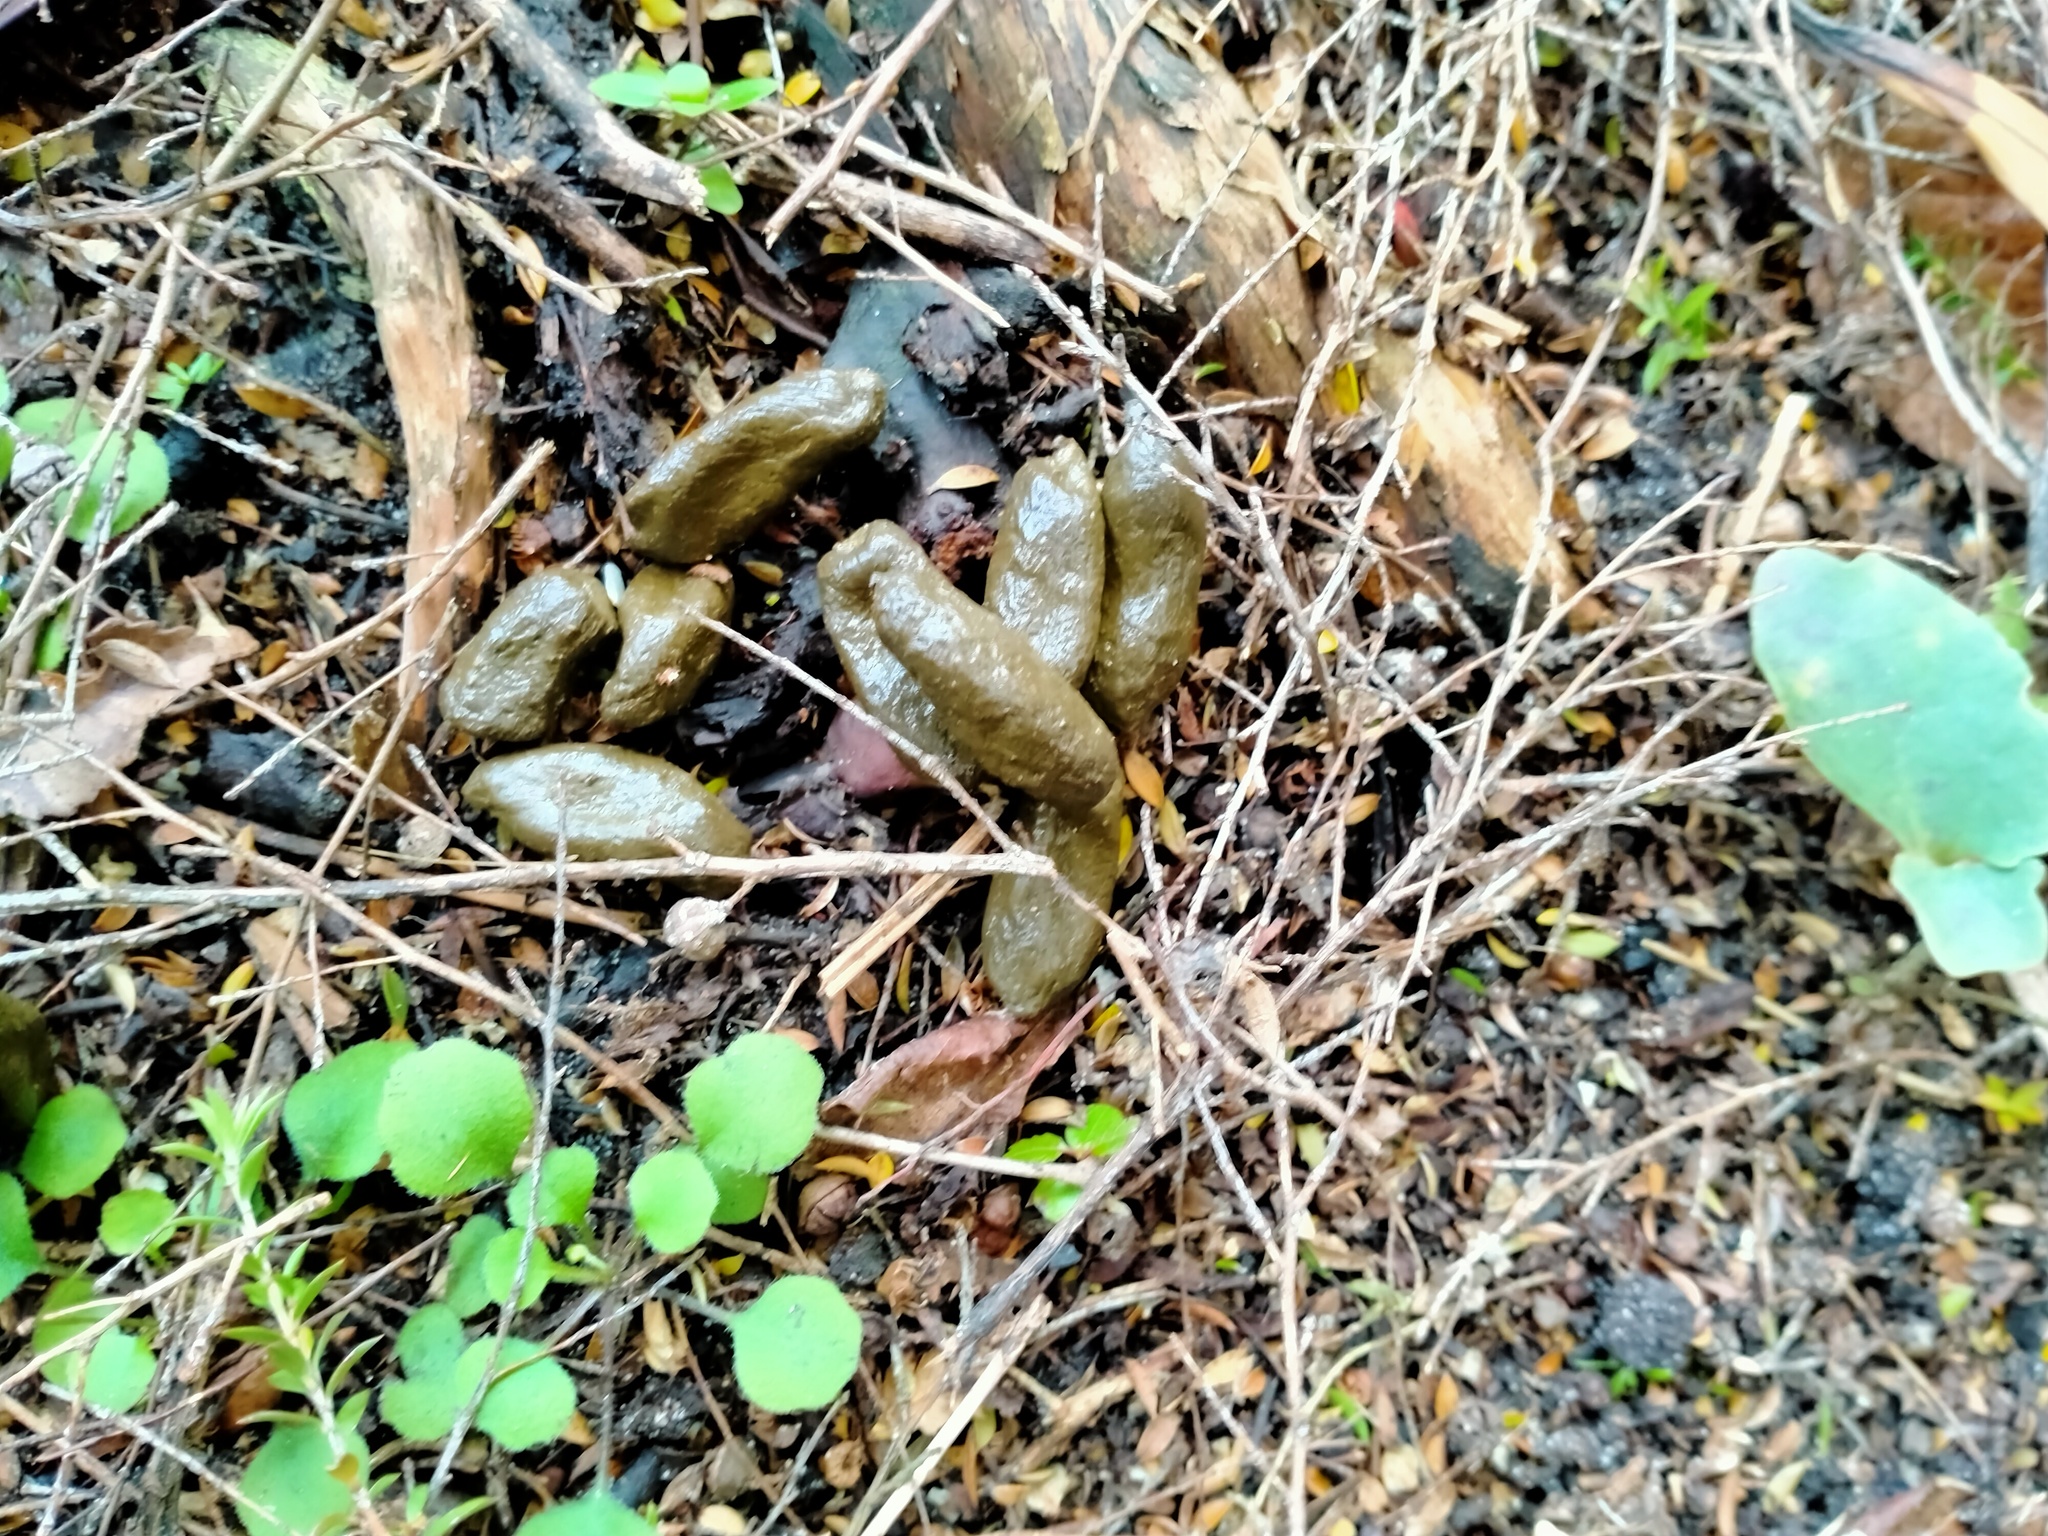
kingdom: Animalia
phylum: Chordata
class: Mammalia
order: Diprotodontia
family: Phalangeridae
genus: Trichosurus
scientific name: Trichosurus vulpecula
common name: Common brushtail
